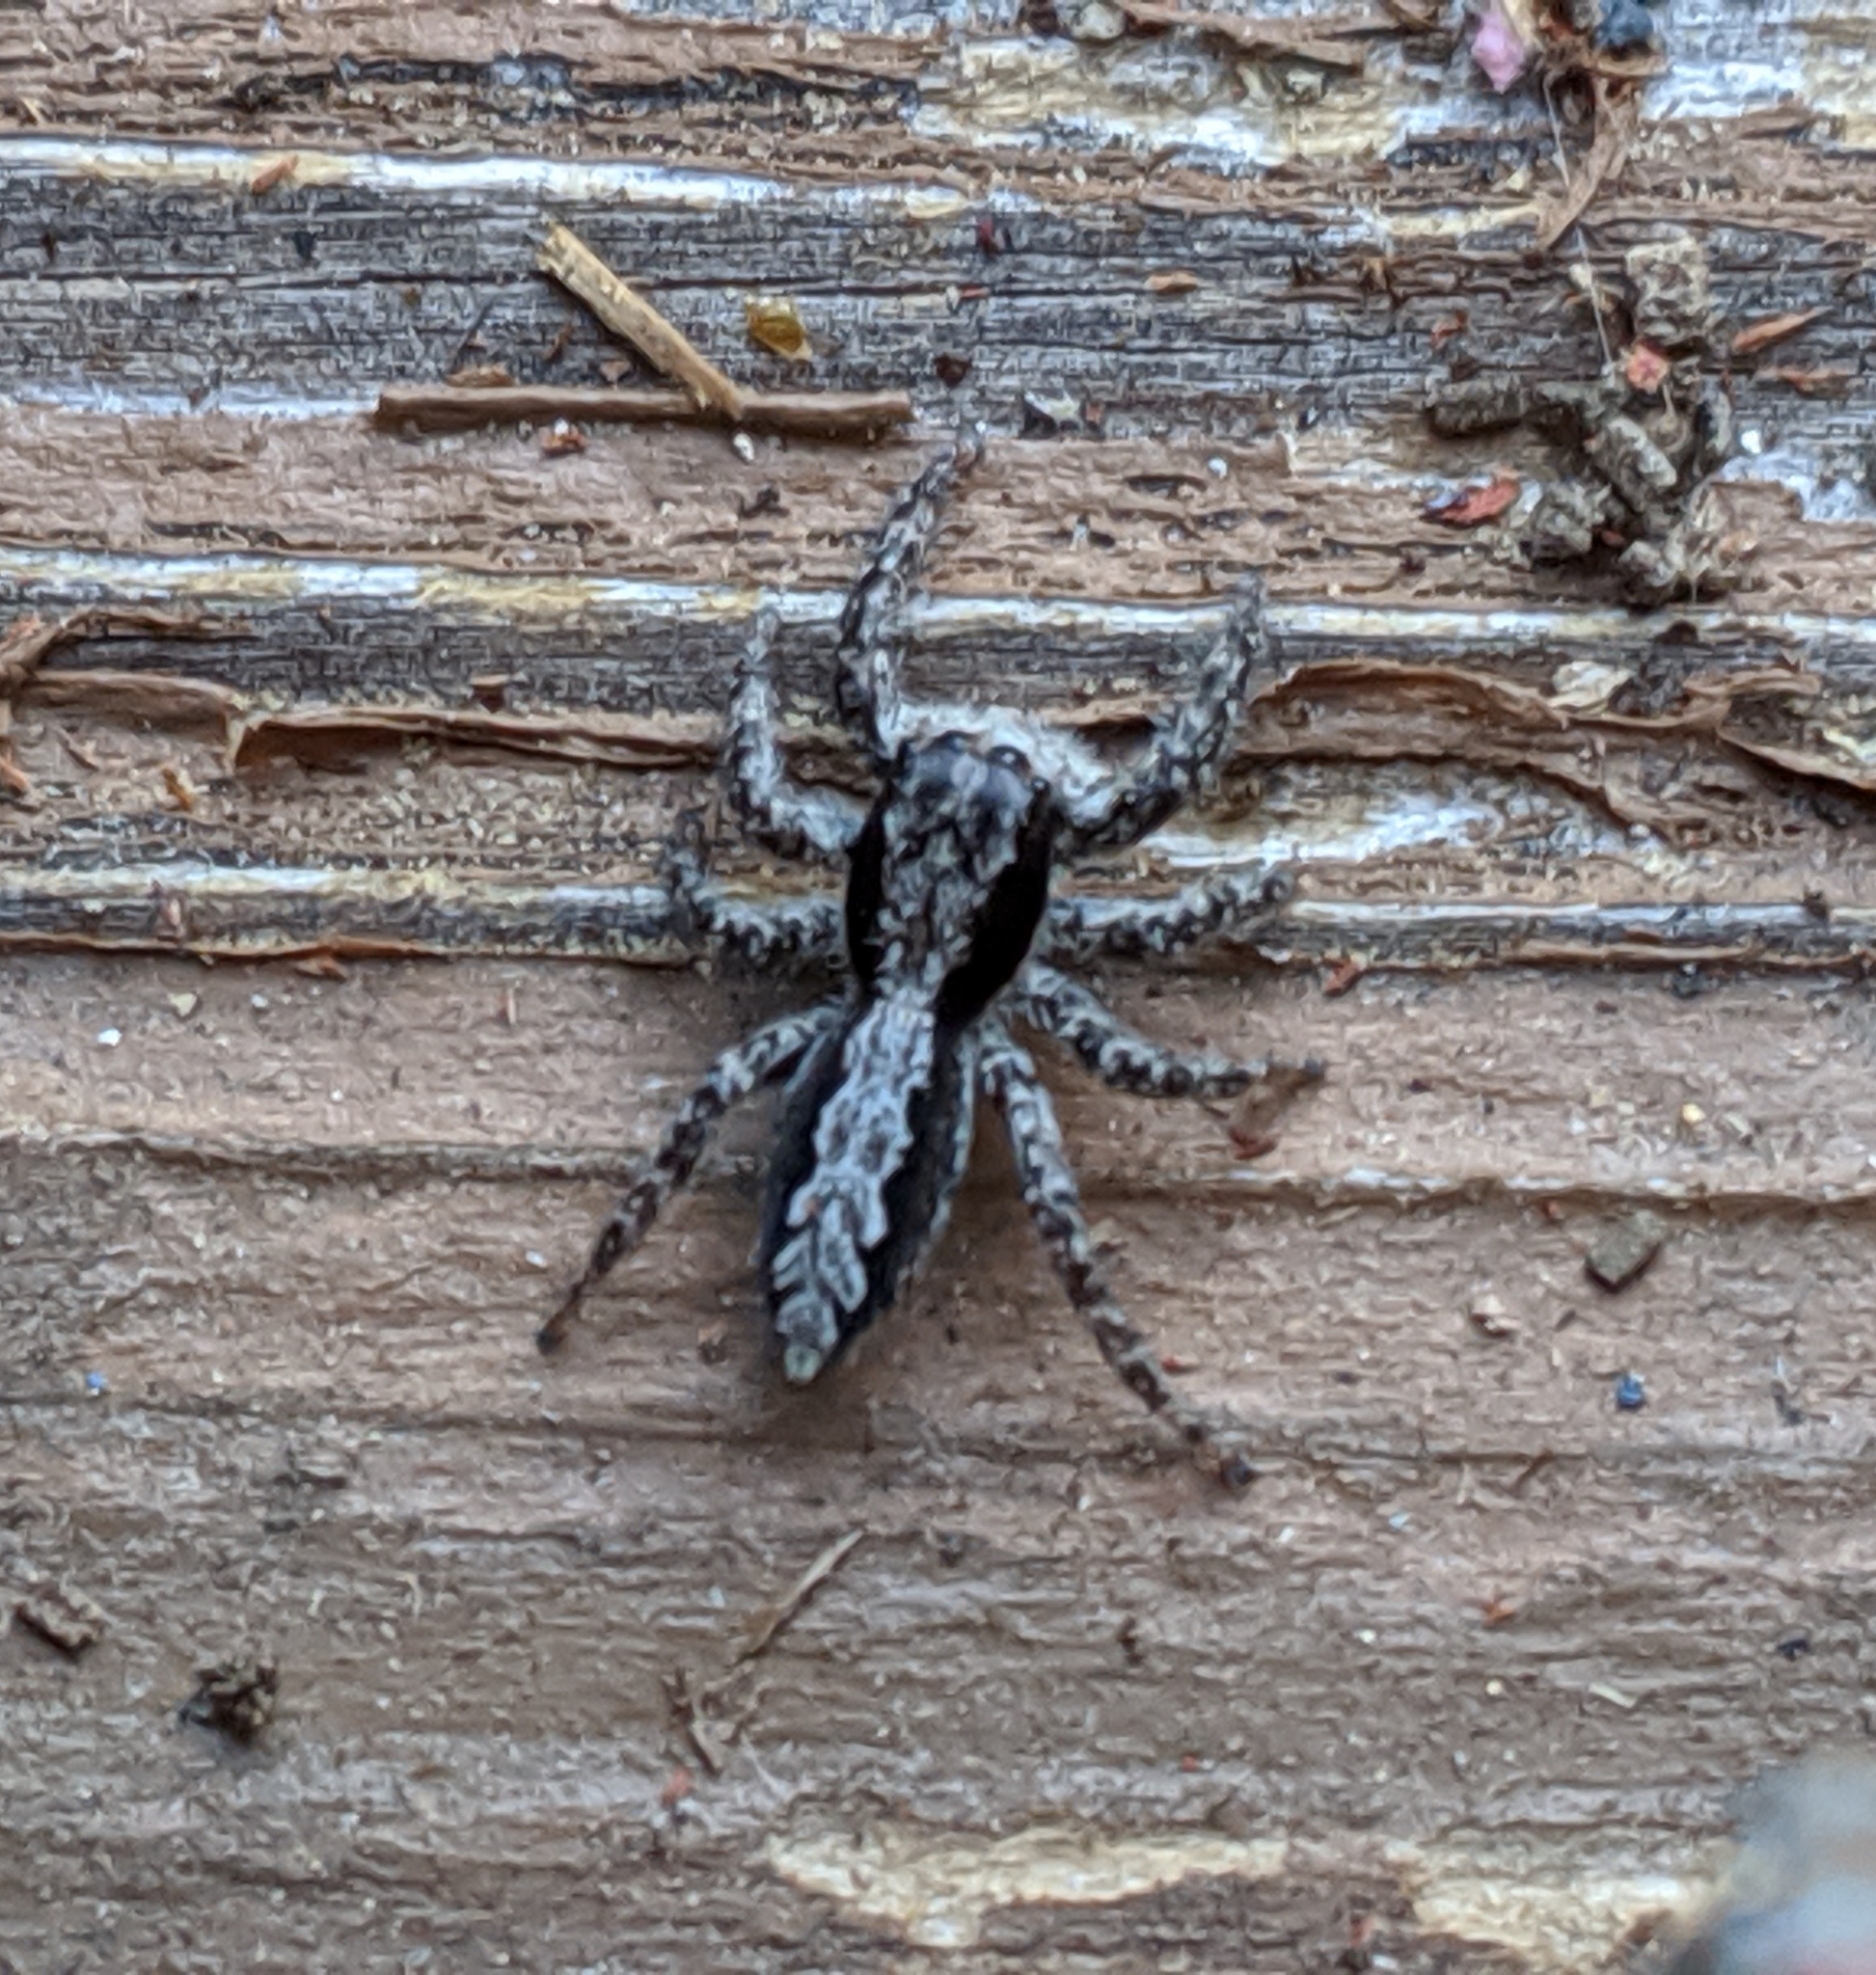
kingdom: Animalia
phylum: Arthropoda
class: Arachnida
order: Araneae
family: Salticidae
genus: Platycryptus
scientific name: Platycryptus californicus
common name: Jumping spiders
